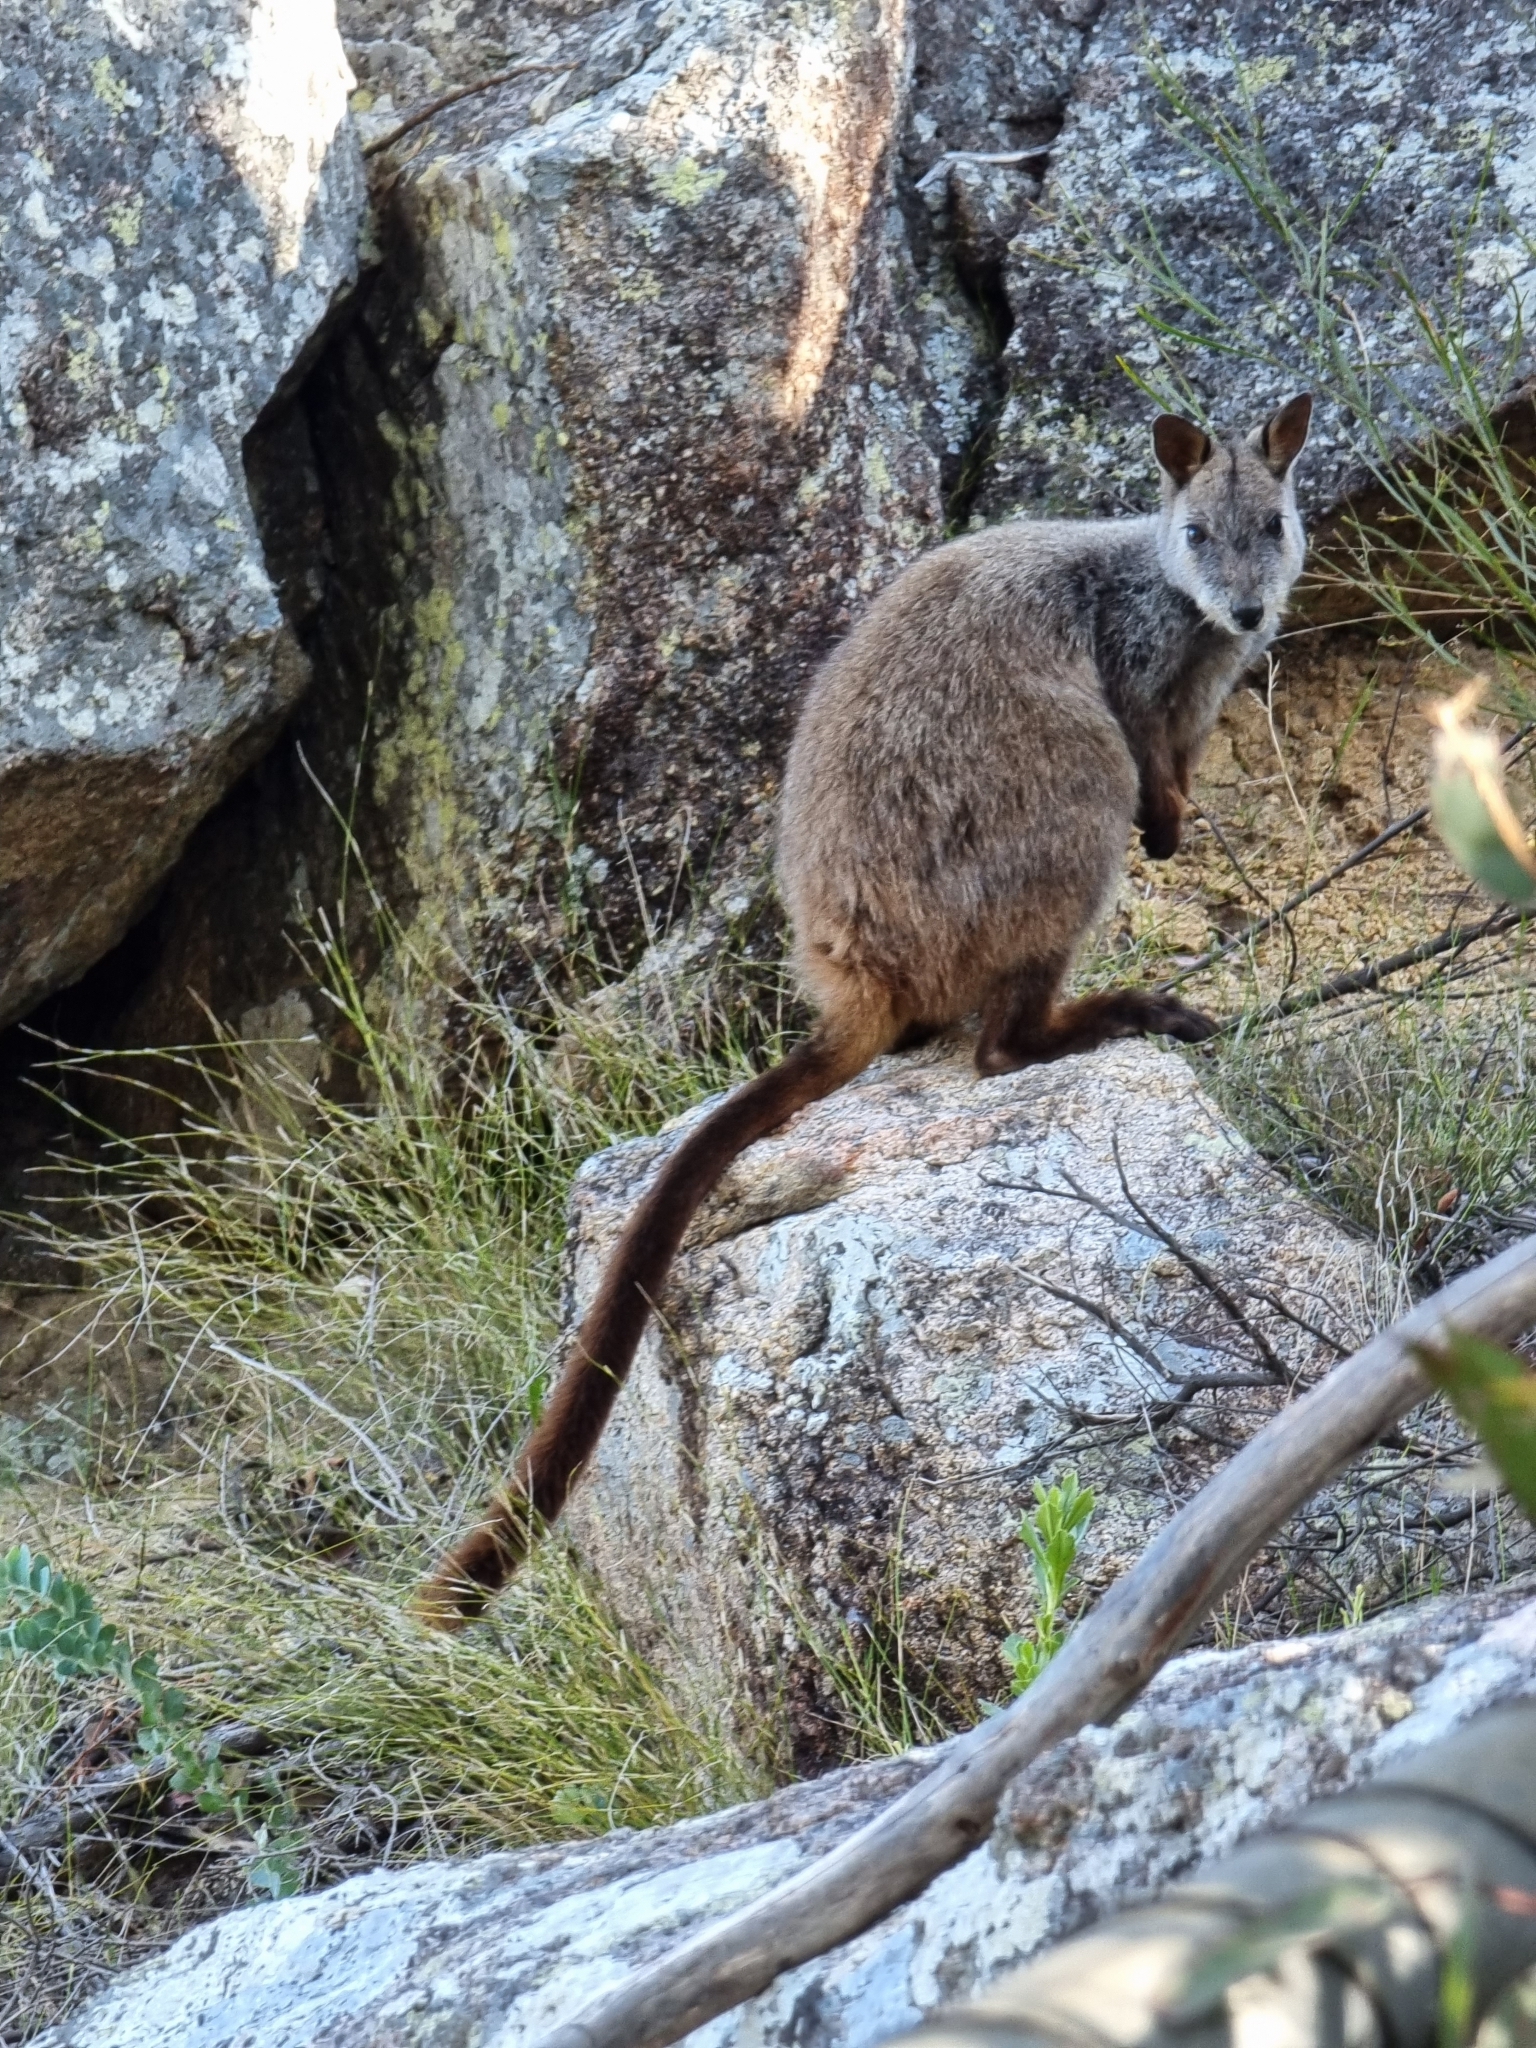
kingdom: Animalia
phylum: Chordata
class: Mammalia
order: Diprotodontia
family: Macropodidae
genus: Petrogale
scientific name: Petrogale penicillata
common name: Brush-tailed rock-wallaby
